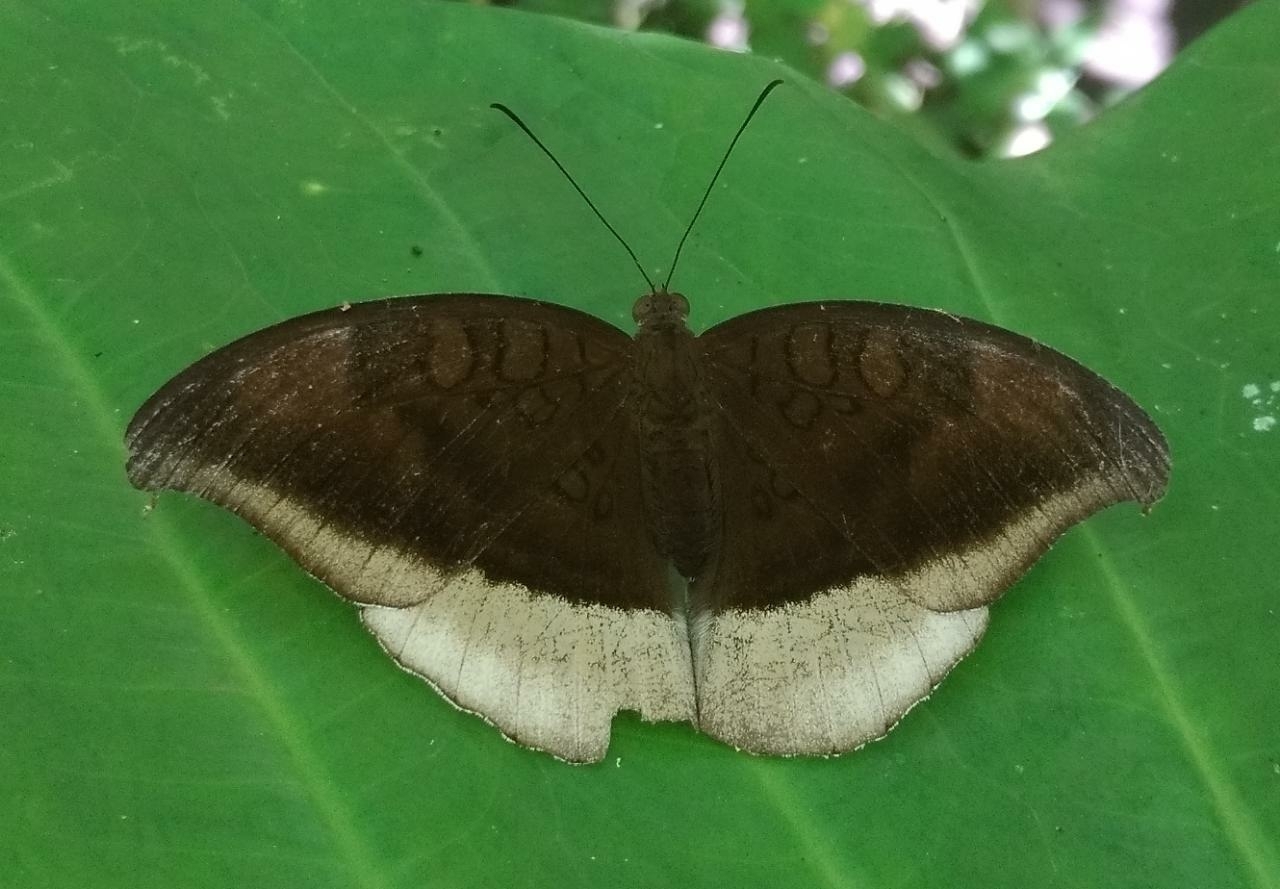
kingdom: Animalia
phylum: Arthropoda
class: Insecta
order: Lepidoptera
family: Nymphalidae
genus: Tanaecia
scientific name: Tanaecia lepidea
